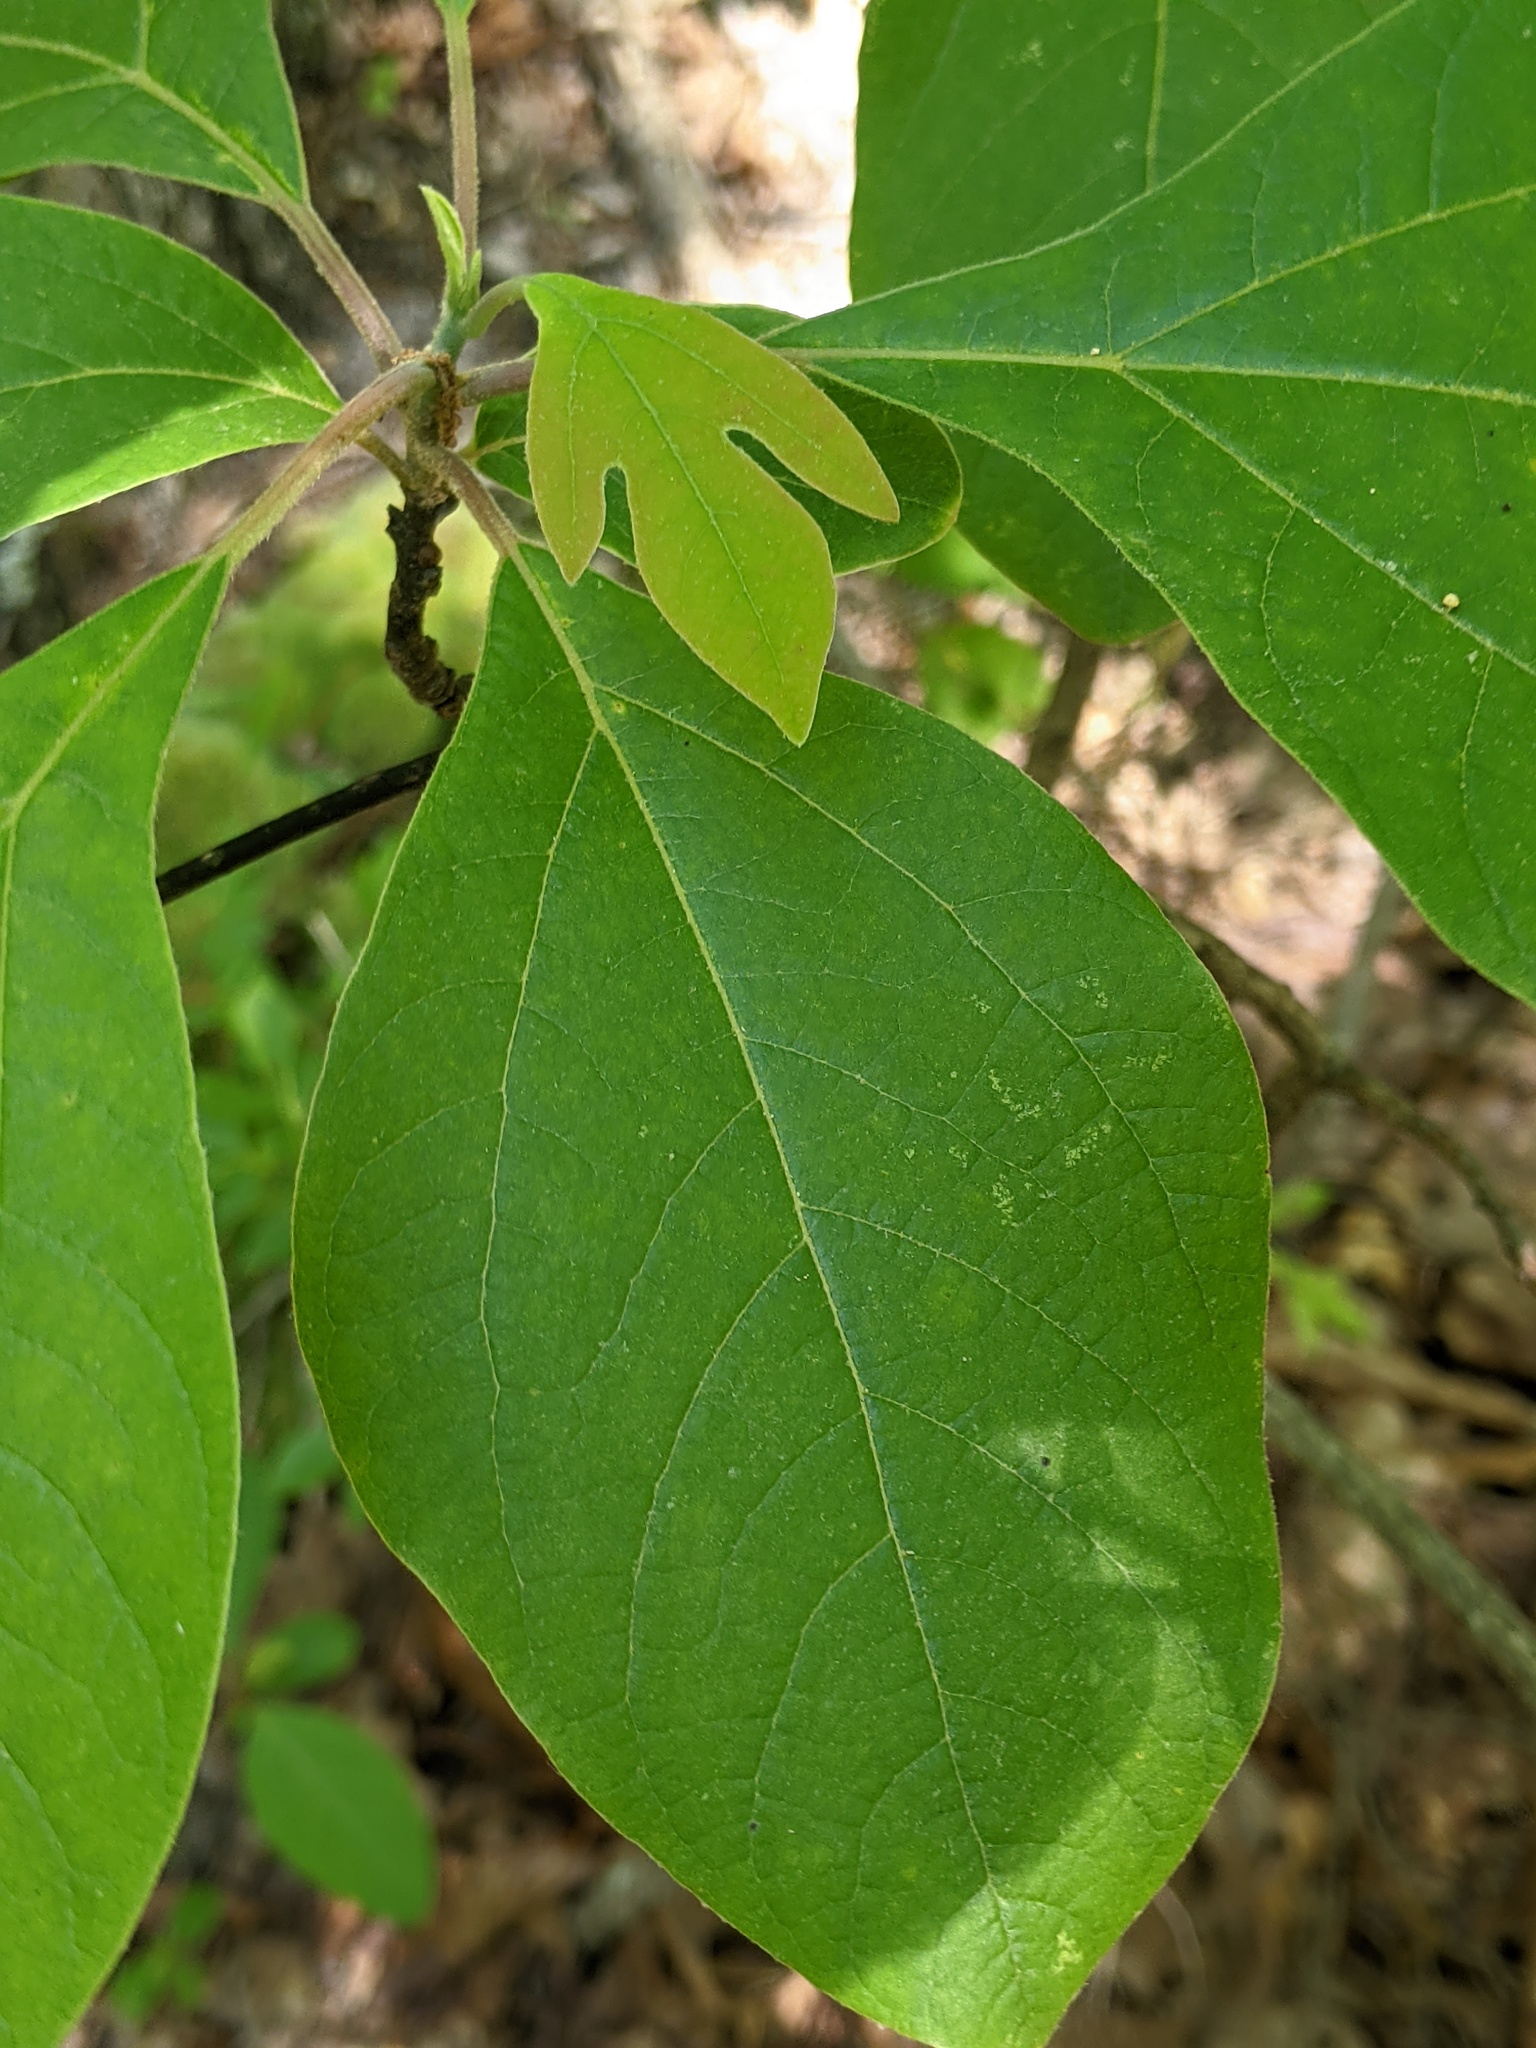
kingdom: Plantae
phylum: Tracheophyta
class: Magnoliopsida
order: Laurales
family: Lauraceae
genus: Sassafras
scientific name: Sassafras albidum
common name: Sassafras
